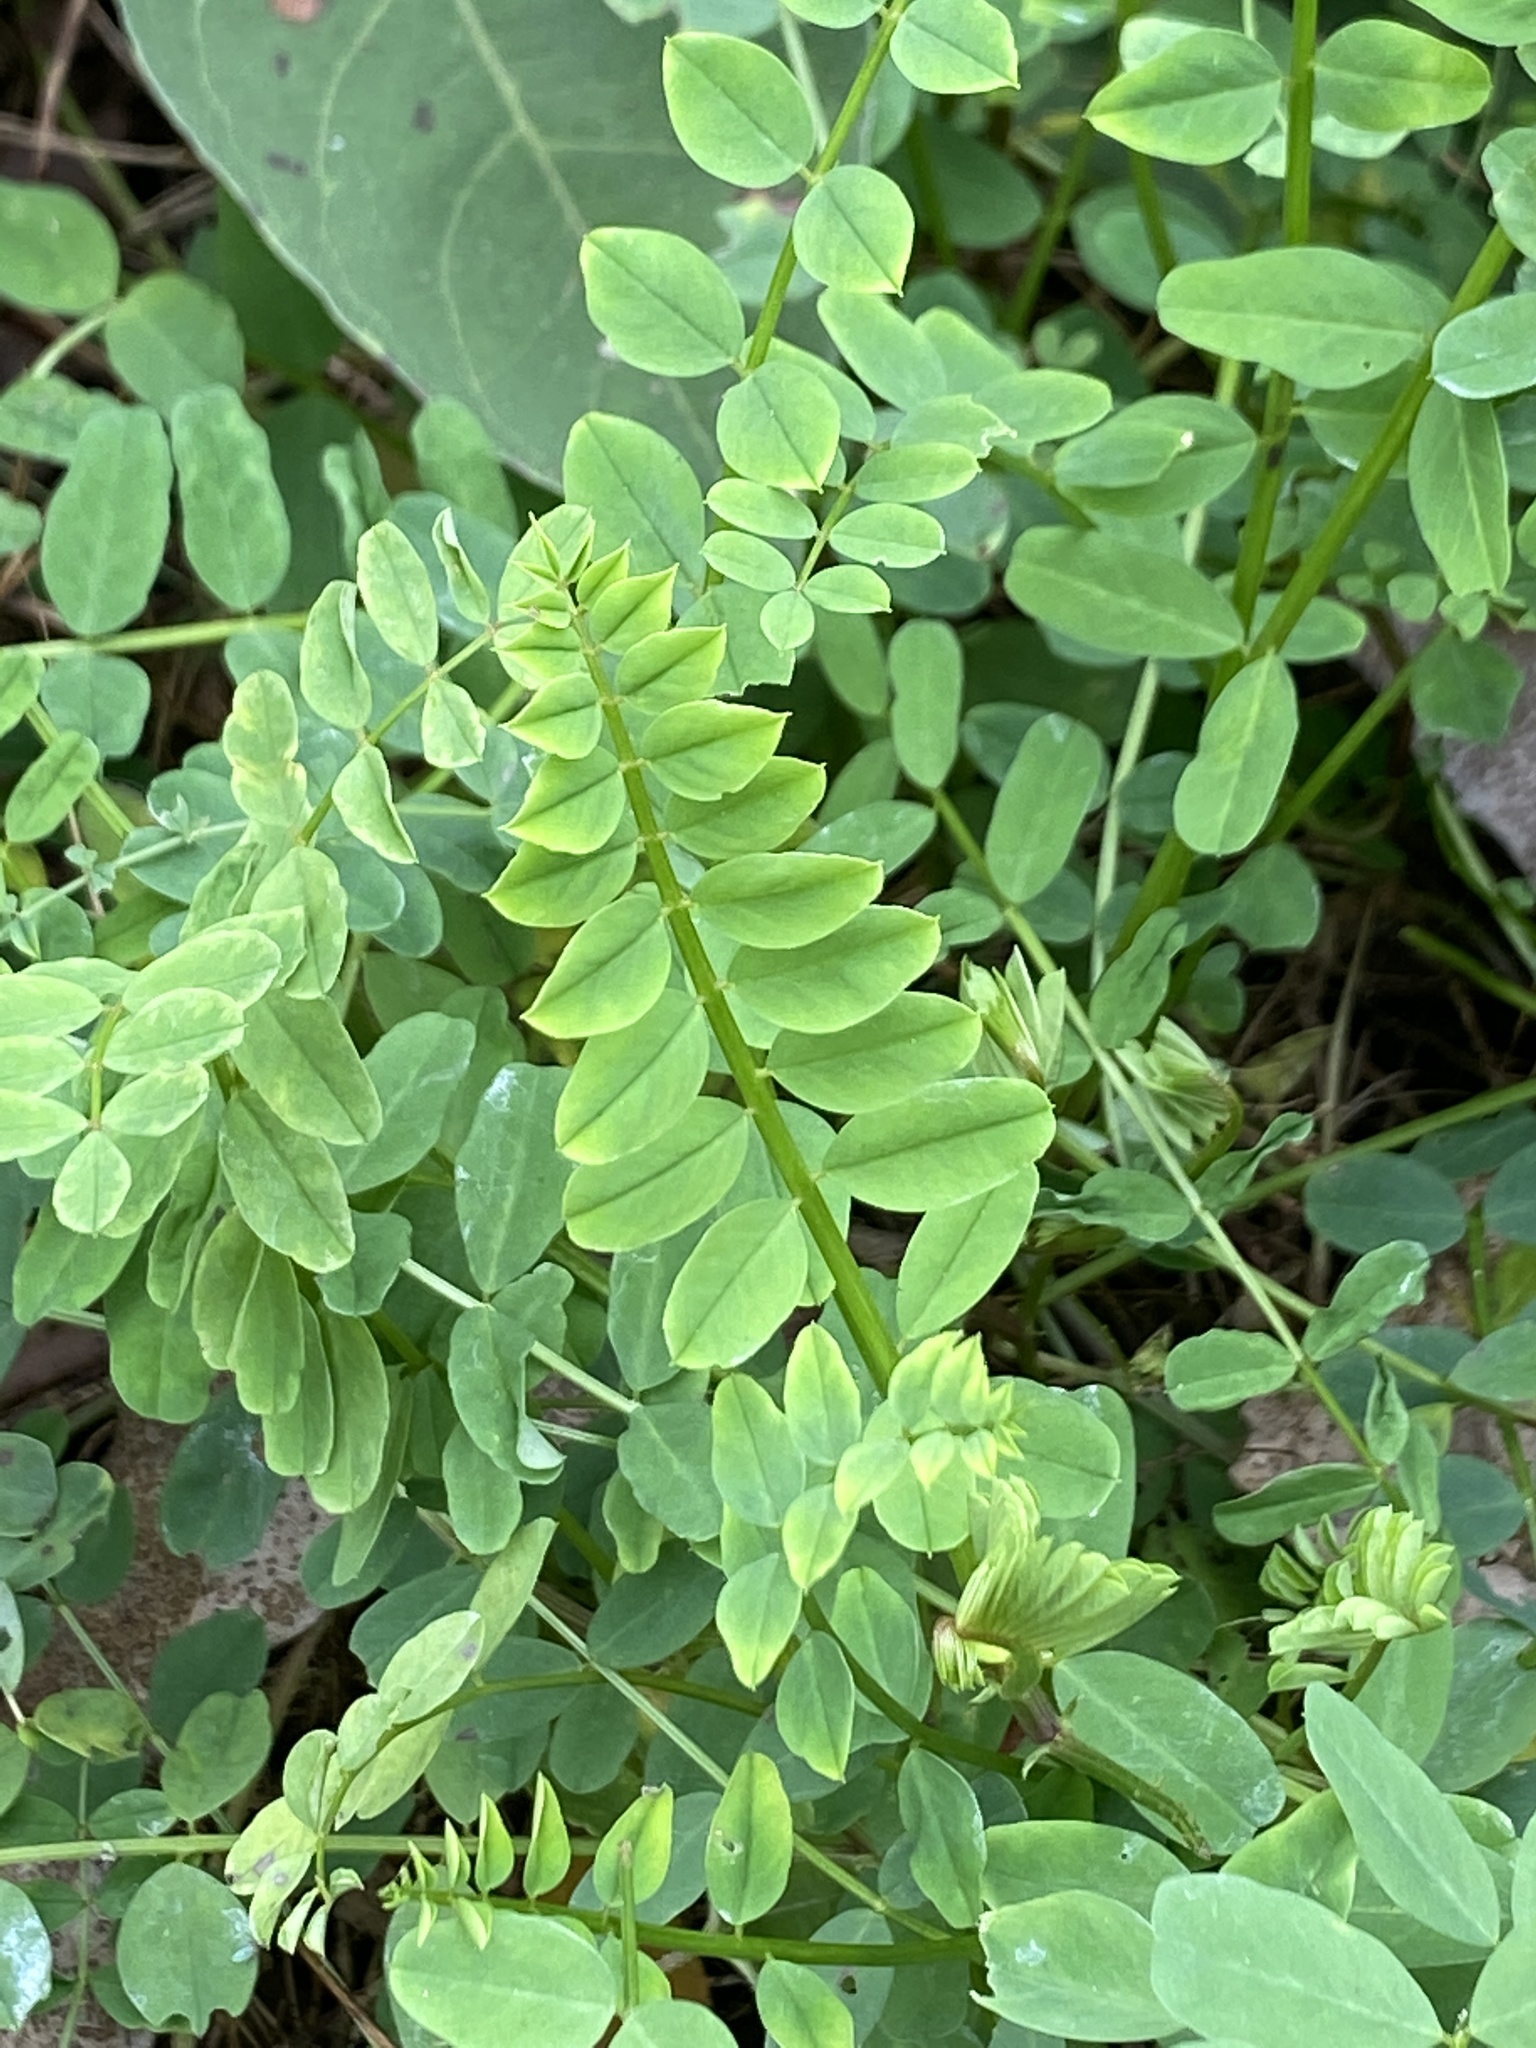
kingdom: Plantae
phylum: Tracheophyta
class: Magnoliopsida
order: Fabales
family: Fabaceae
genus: Coronilla
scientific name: Coronilla varia
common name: Crownvetch
